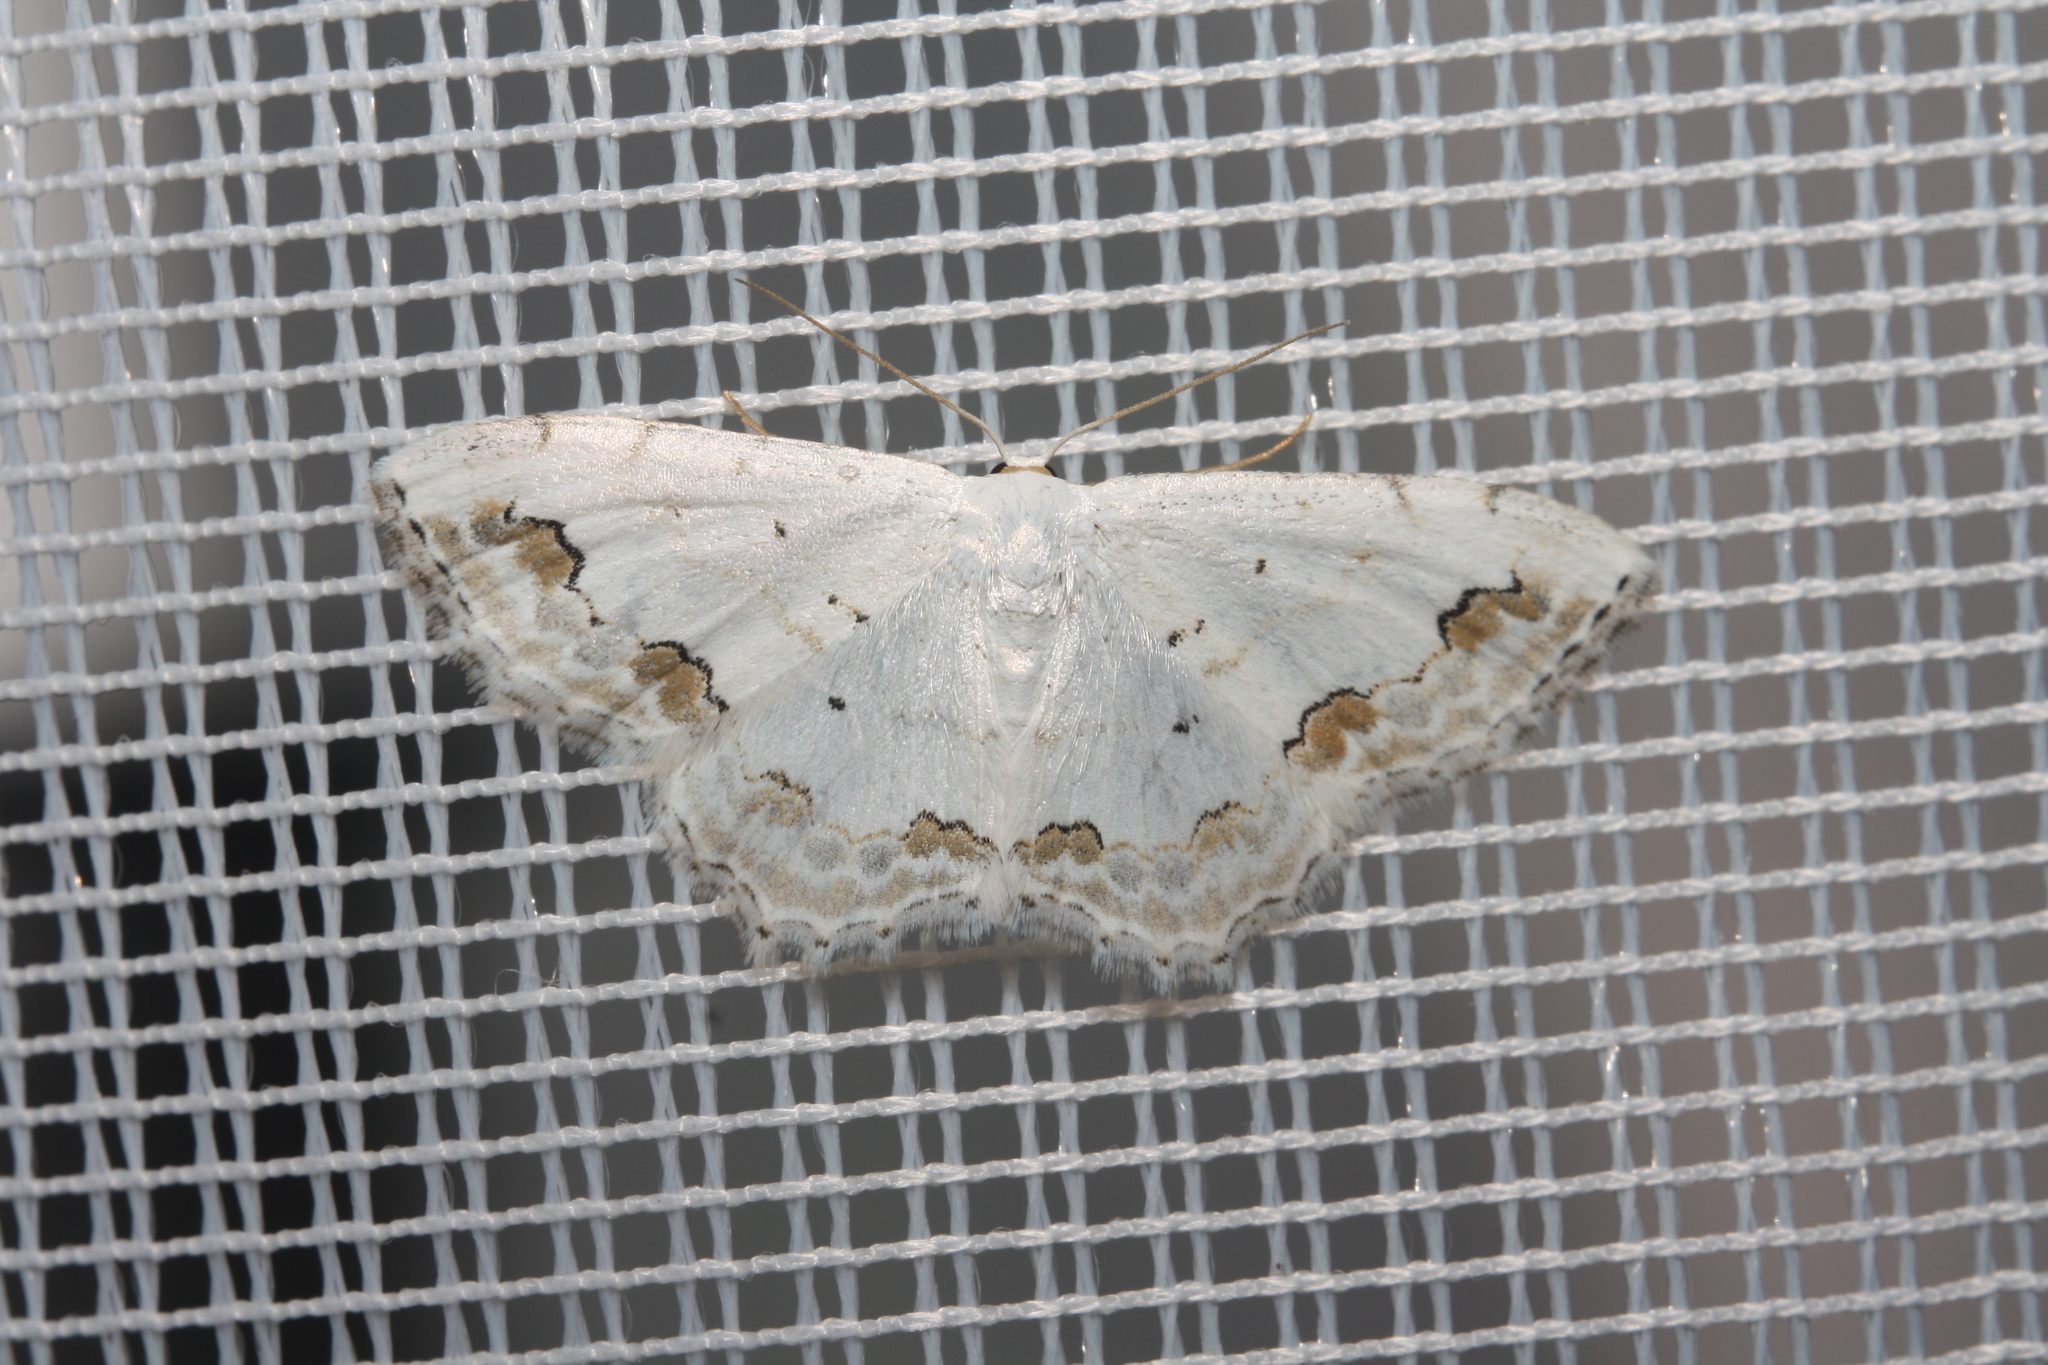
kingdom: Animalia
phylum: Arthropoda
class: Insecta
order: Lepidoptera
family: Geometridae
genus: Scopula
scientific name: Scopula ornata
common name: Lace border
